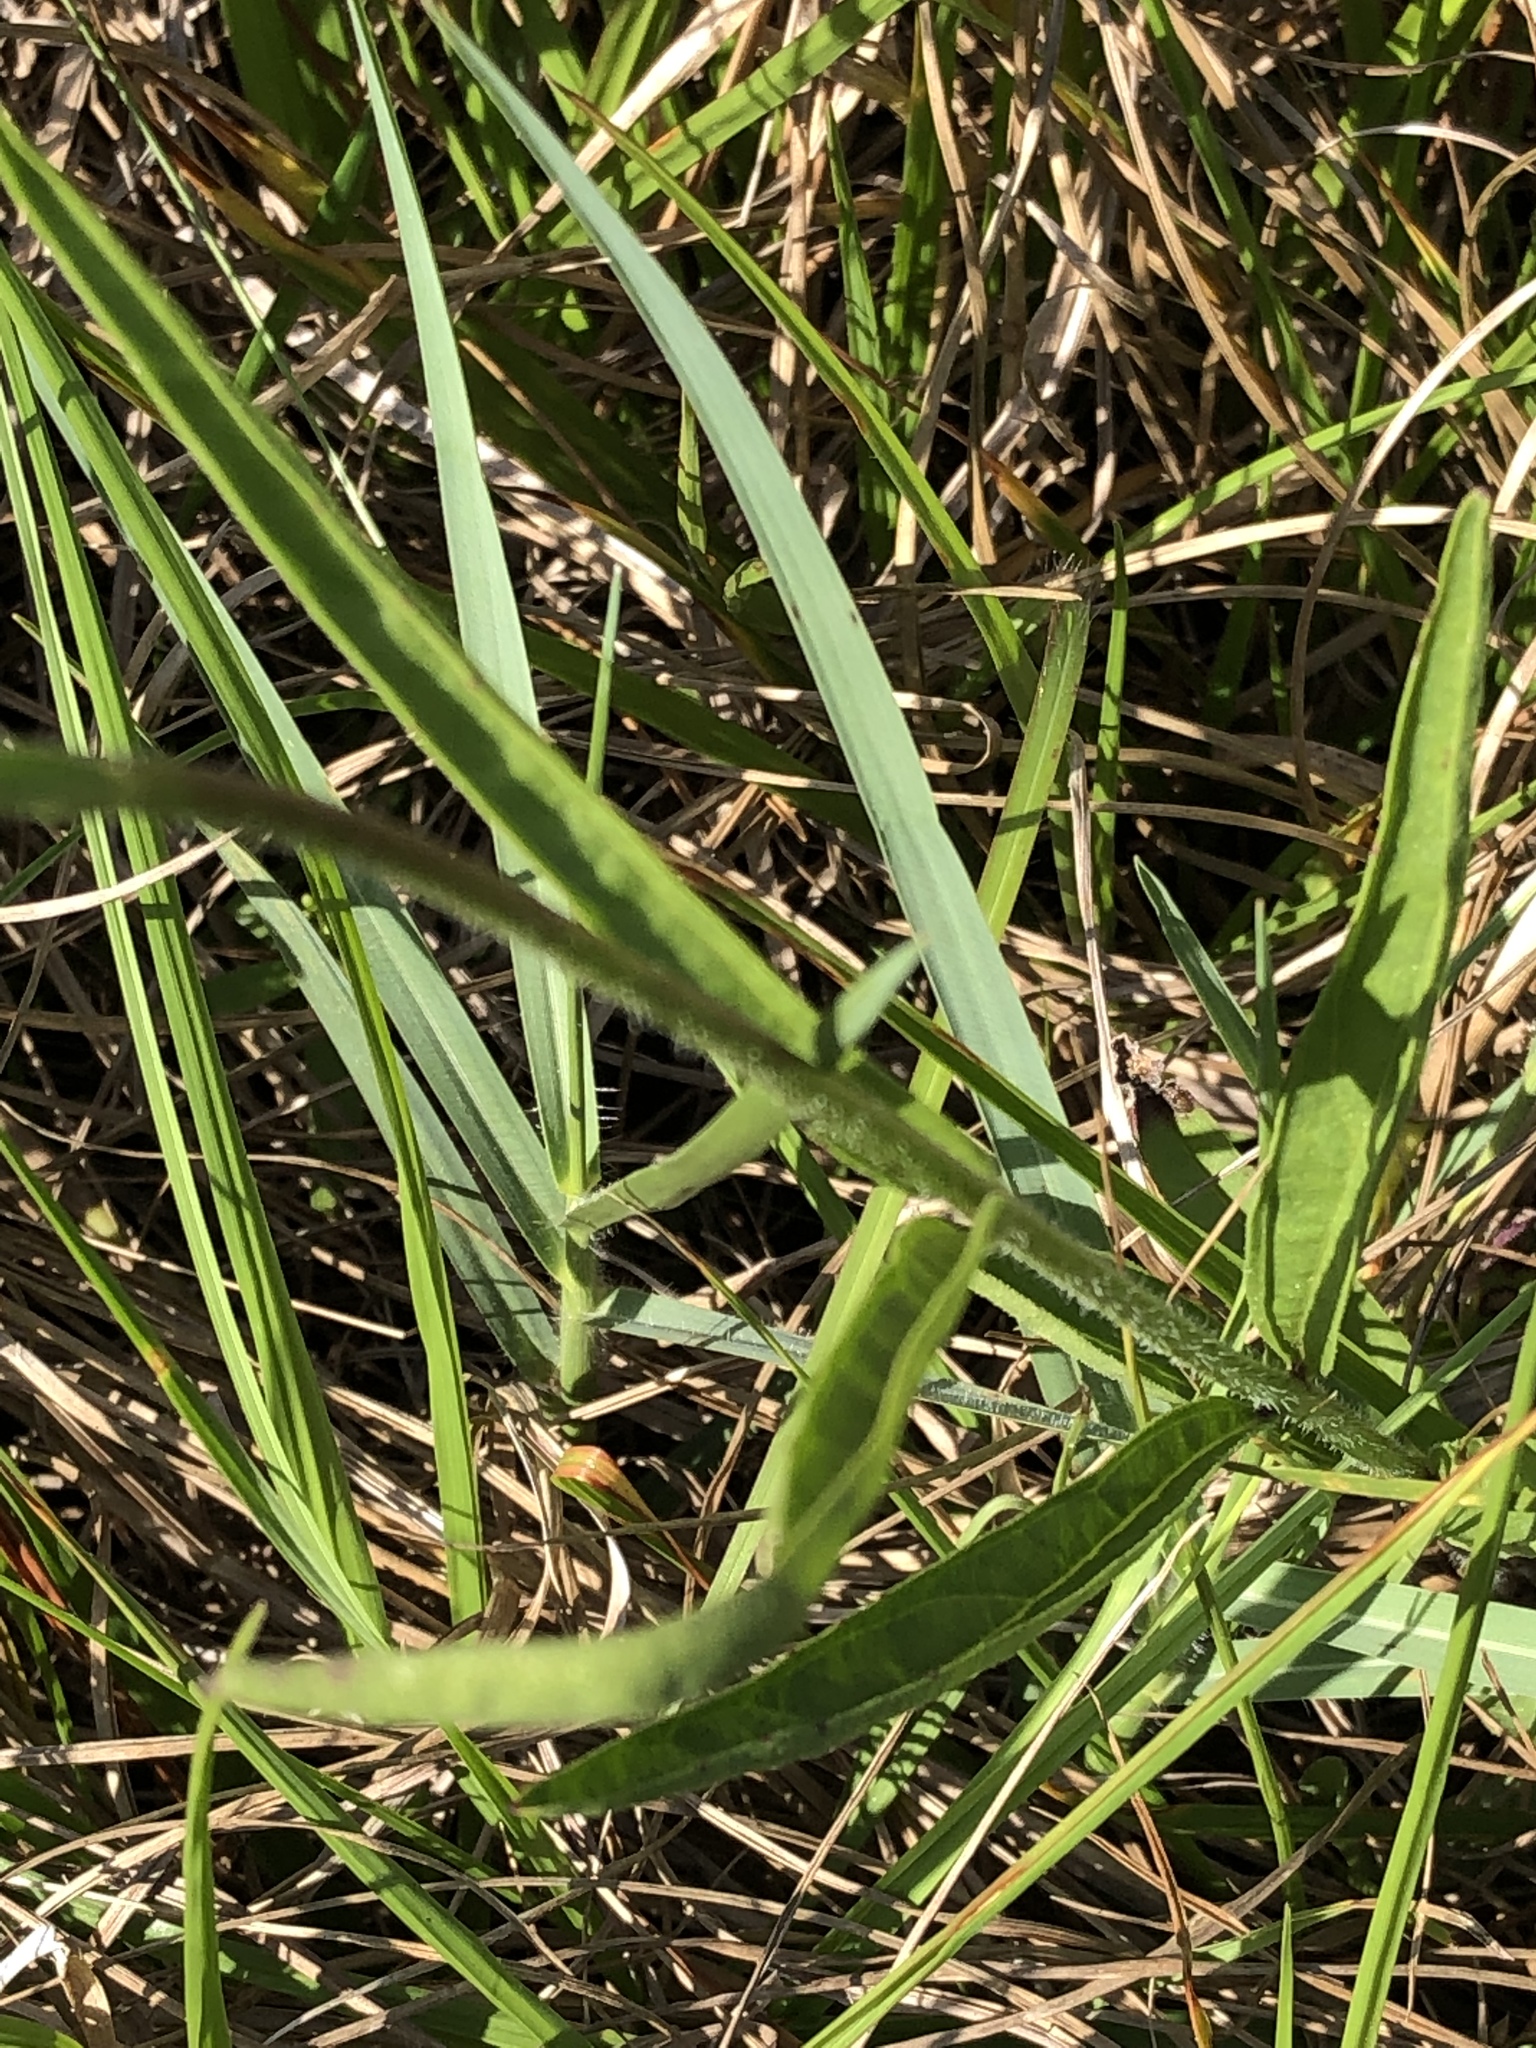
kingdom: Plantae
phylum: Tracheophyta
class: Magnoliopsida
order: Lamiales
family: Orobanchaceae
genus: Buchnera
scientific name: Buchnera floridana
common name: Florida bluehearts
